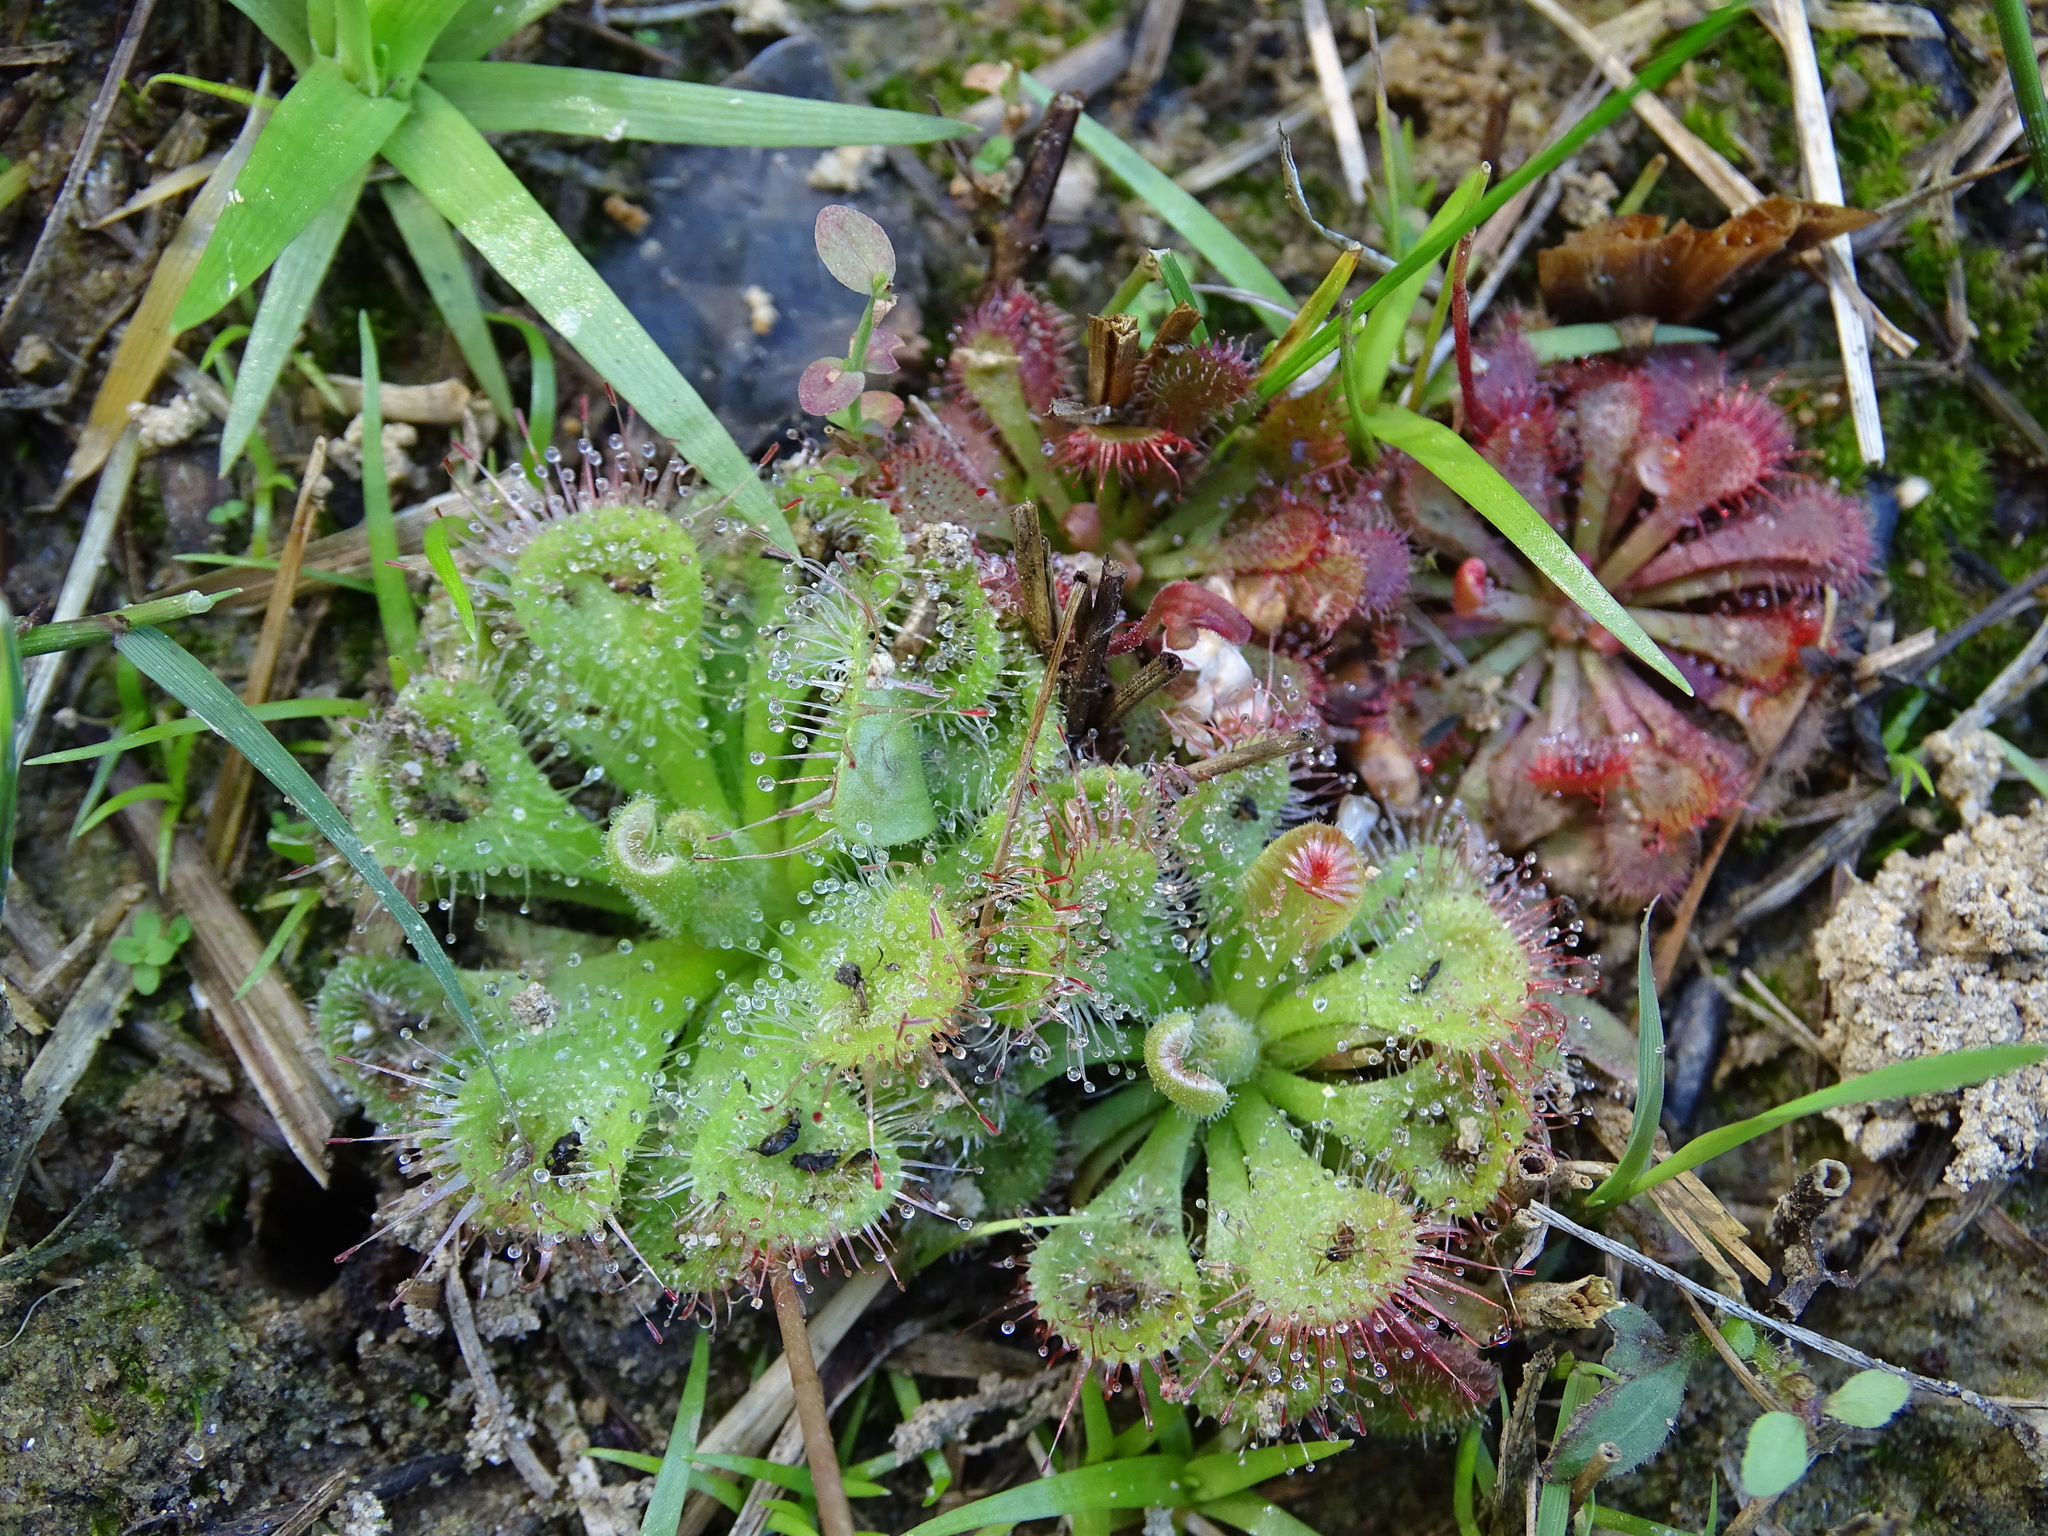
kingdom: Plantae
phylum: Tracheophyta
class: Magnoliopsida
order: Caryophyllales
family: Droseraceae
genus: Drosera
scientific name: Drosera spatulata
